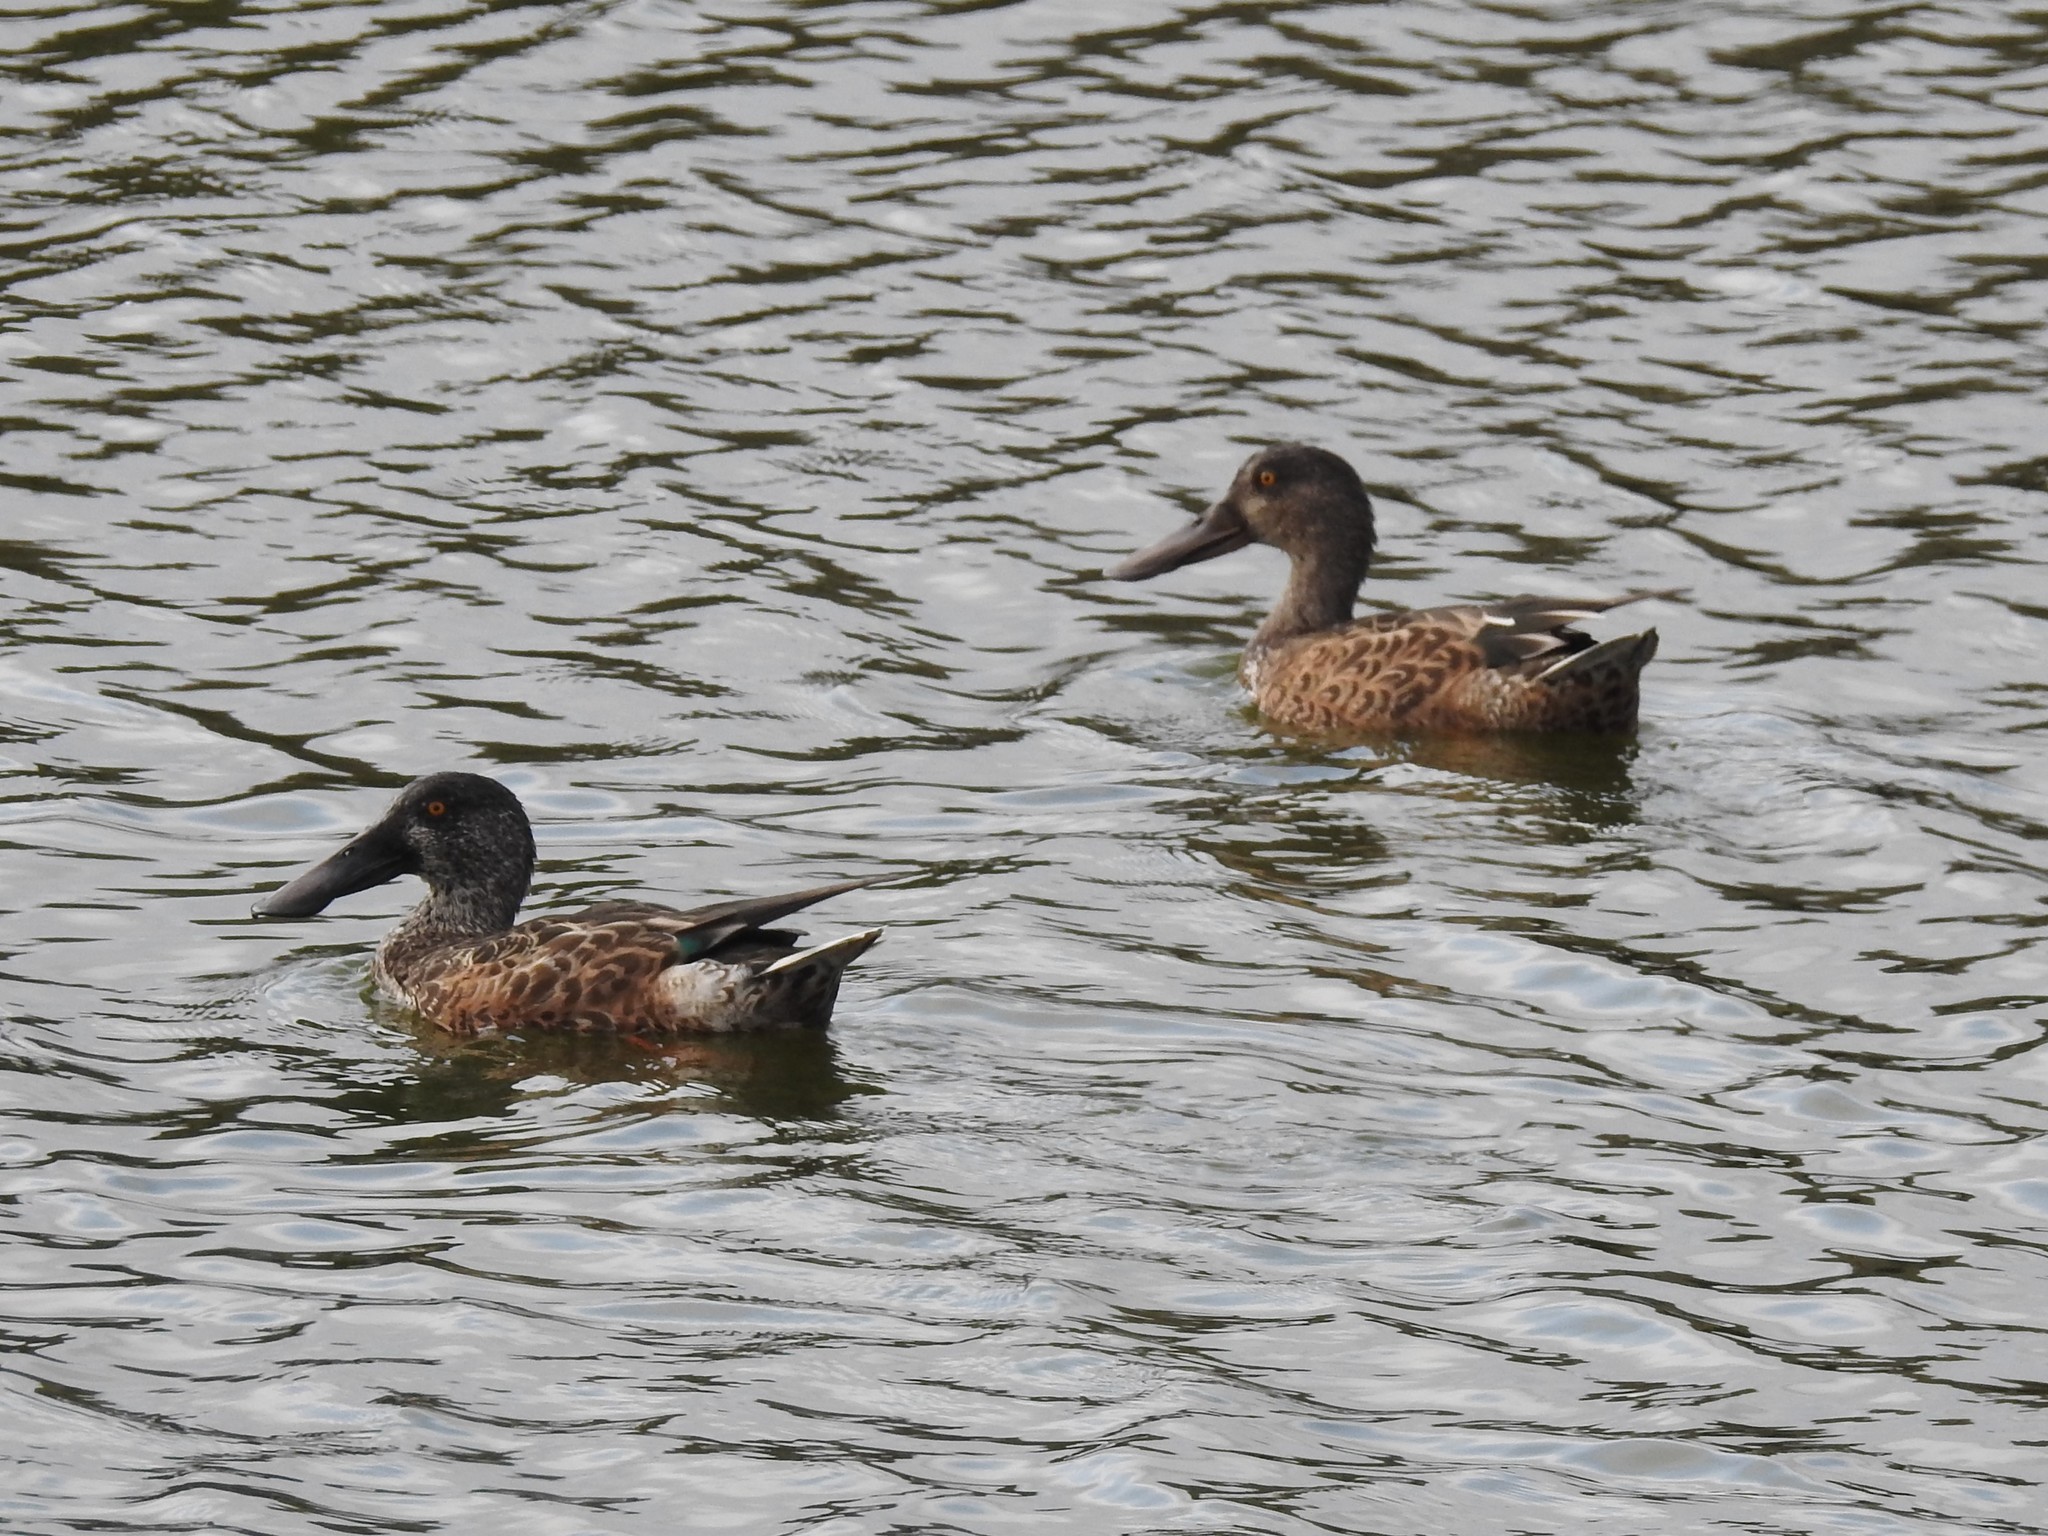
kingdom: Animalia
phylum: Chordata
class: Aves
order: Anseriformes
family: Anatidae
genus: Spatula
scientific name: Spatula clypeata
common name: Northern shoveler
